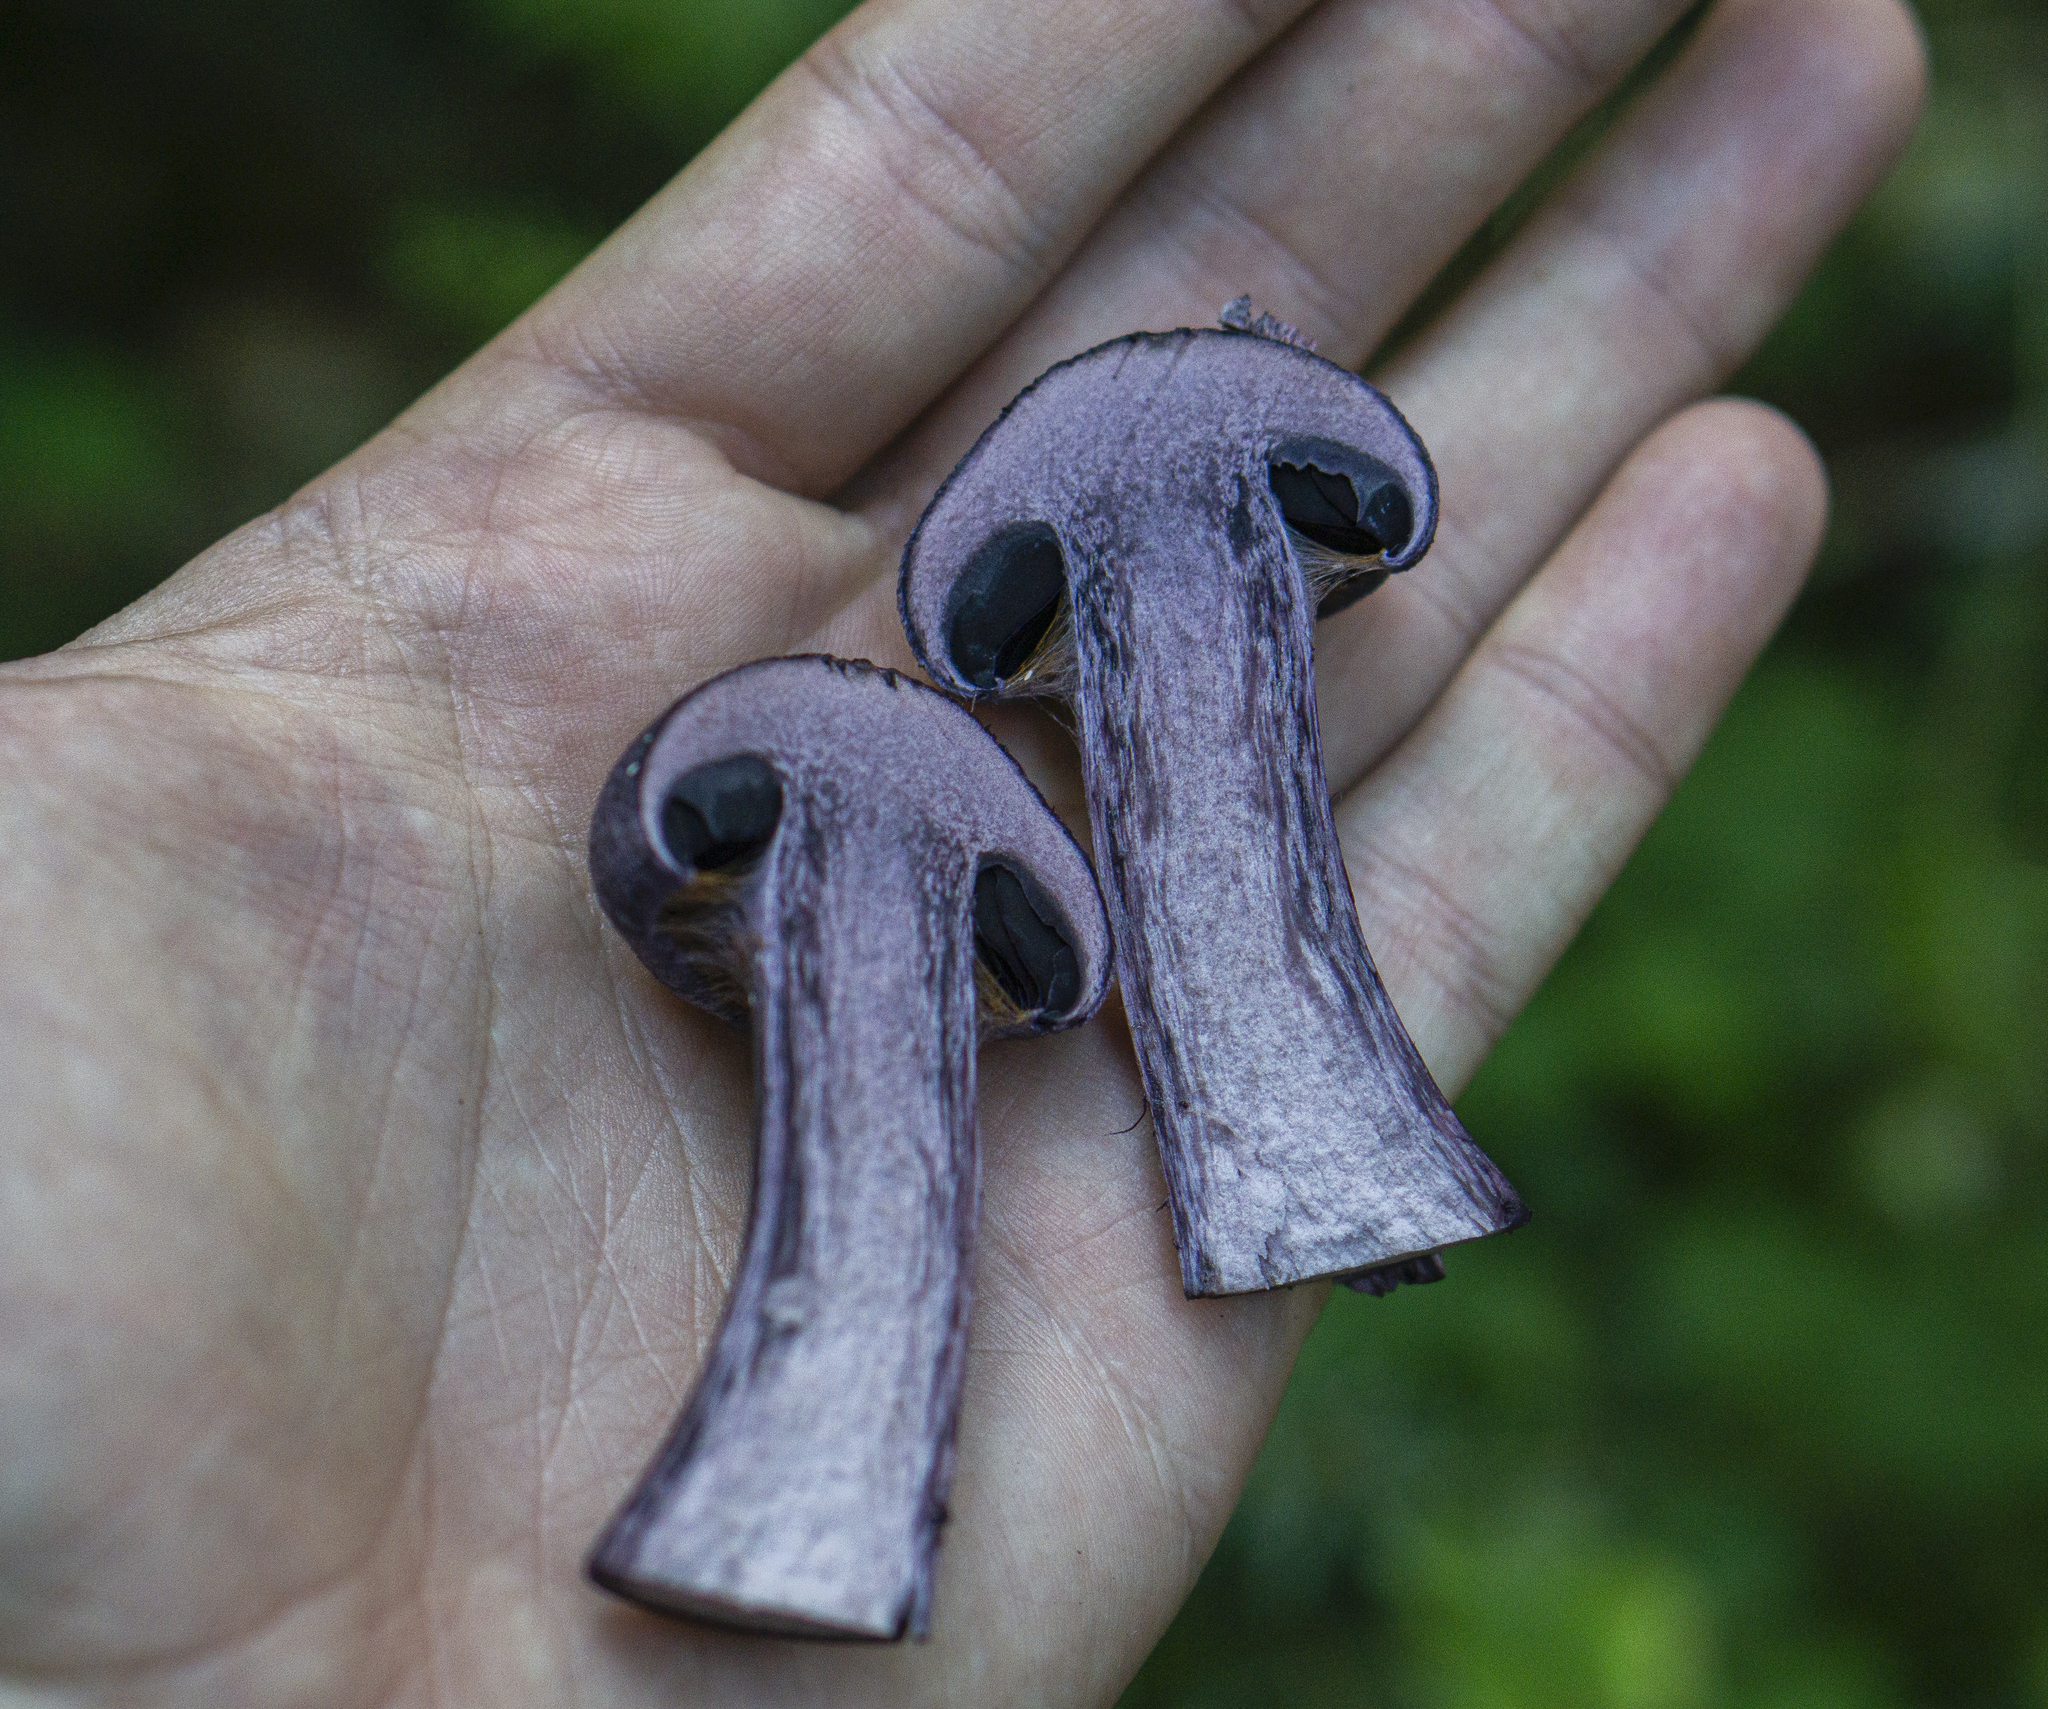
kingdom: Fungi
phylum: Basidiomycota
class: Agaricomycetes
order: Agaricales
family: Cortinariaceae
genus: Cortinarius
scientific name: Cortinarius violaceus
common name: Violet webcap
